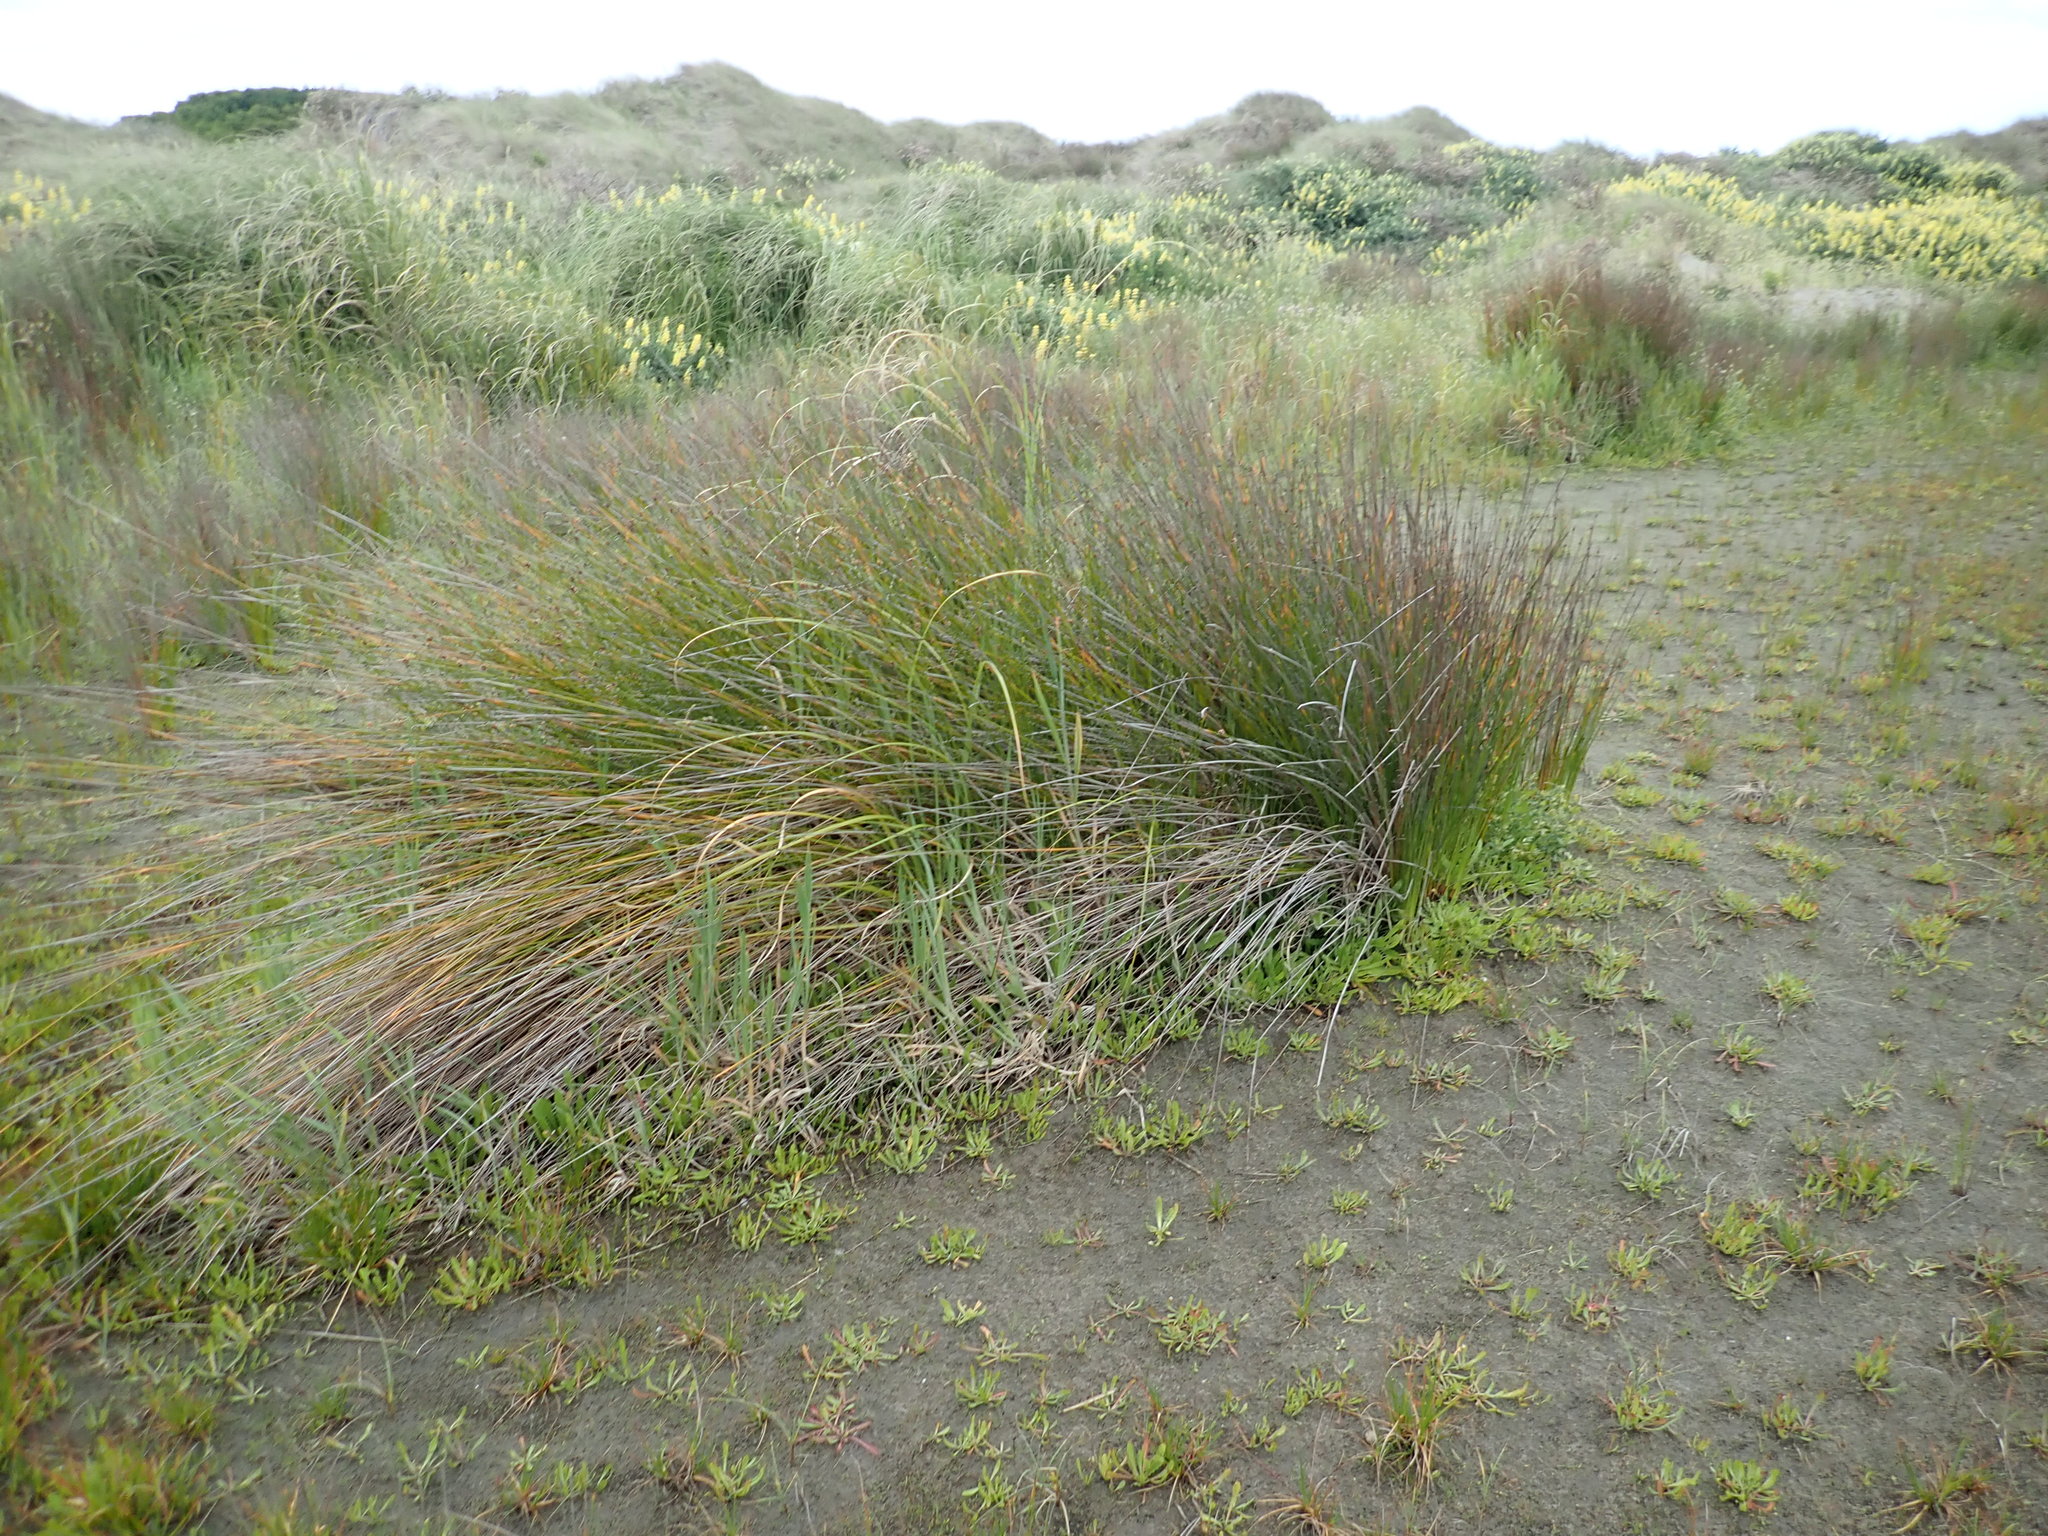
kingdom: Plantae
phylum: Tracheophyta
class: Liliopsida
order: Poales
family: Cyperaceae
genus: Ficinia
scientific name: Ficinia nodosa
